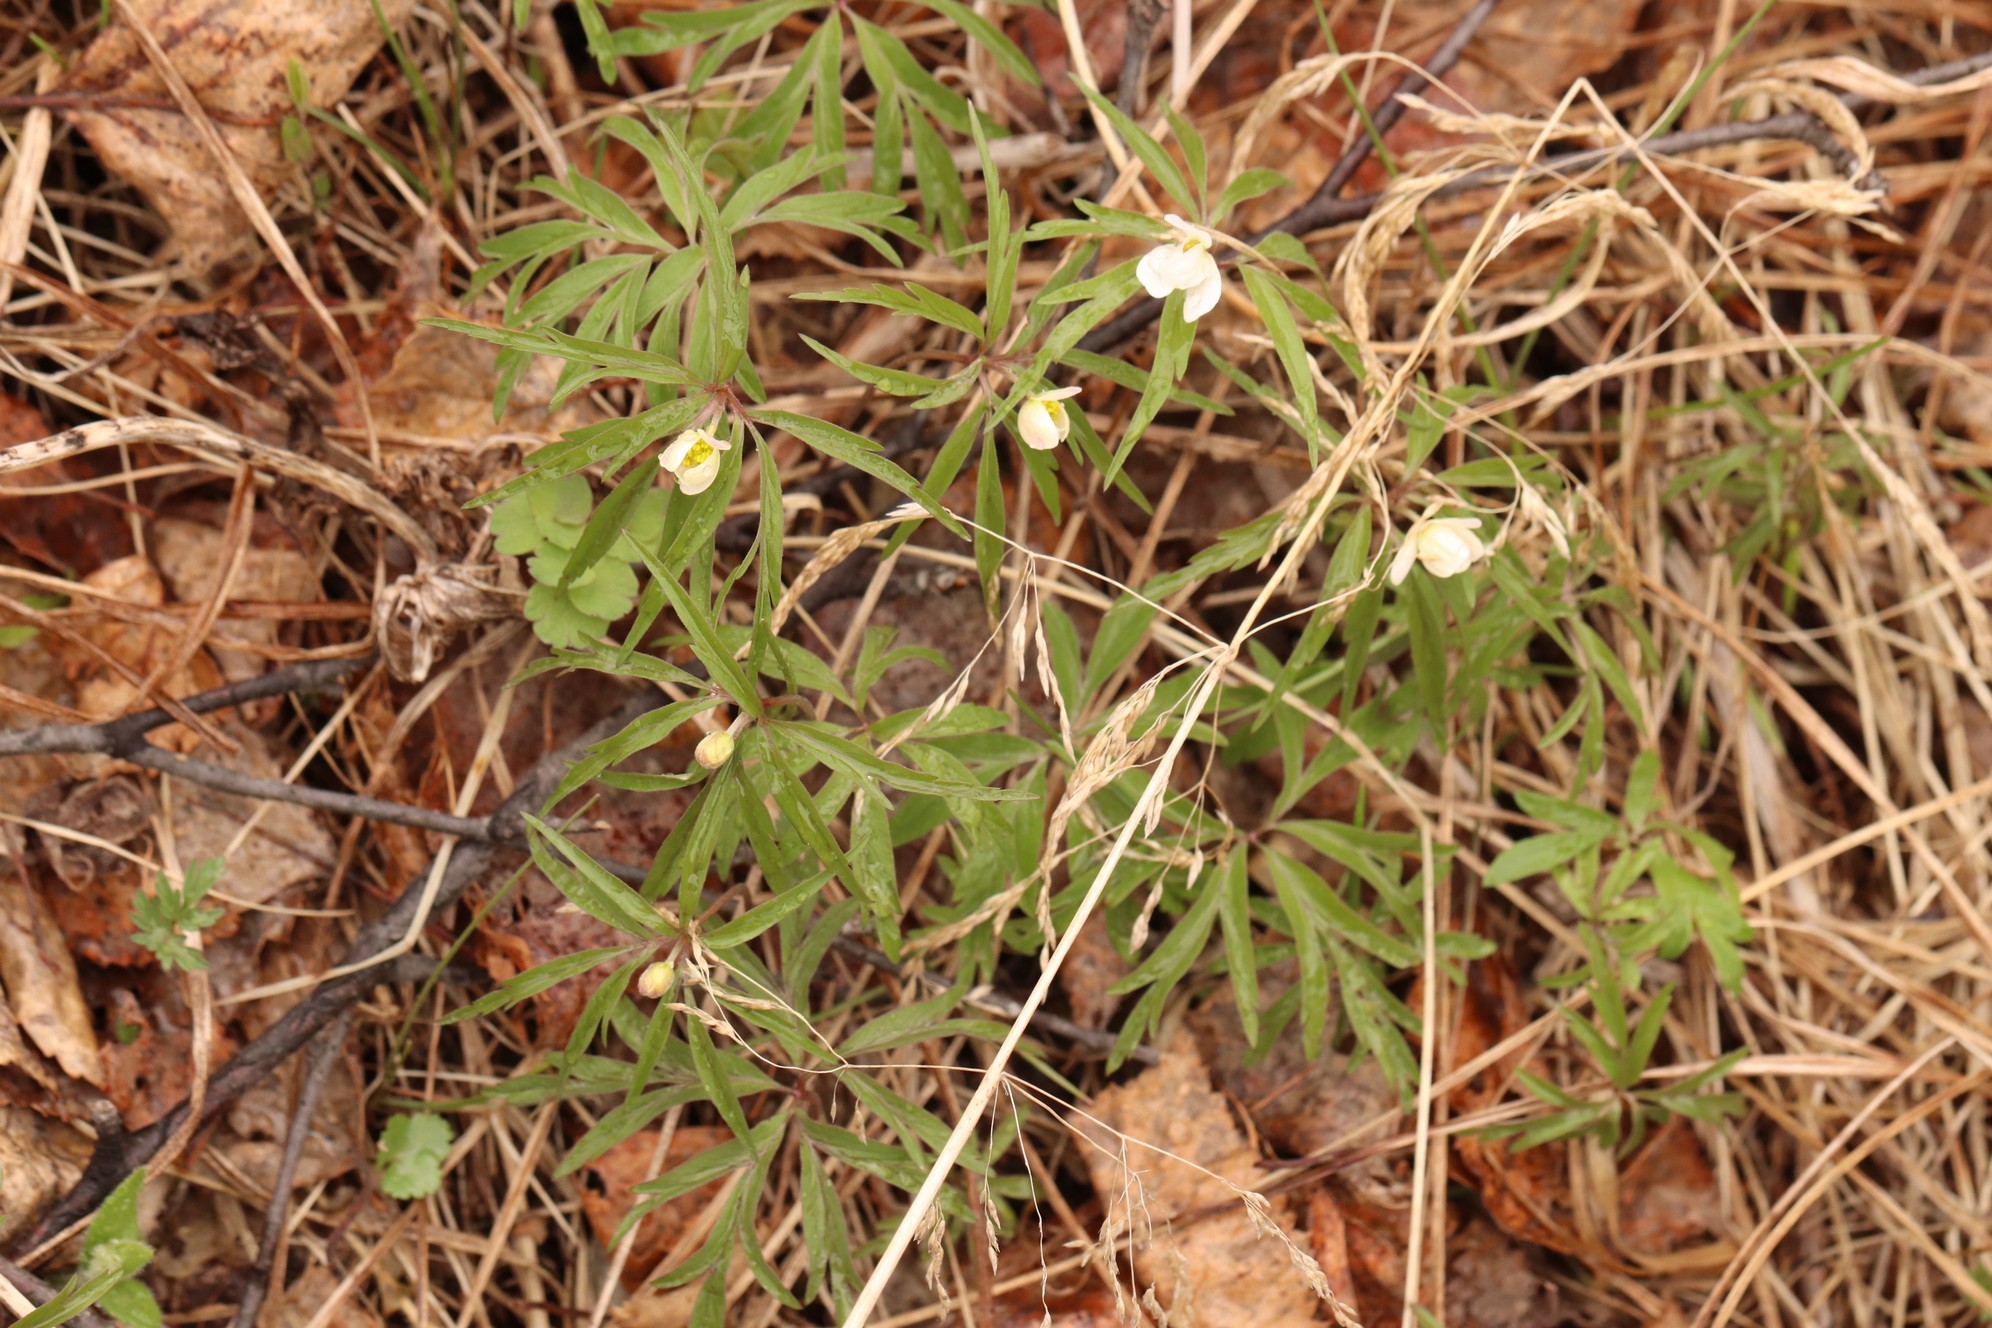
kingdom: Plantae
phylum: Tracheophyta
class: Magnoliopsida
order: Ranunculales
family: Ranunculaceae
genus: Anemone
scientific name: Anemone caerulea
